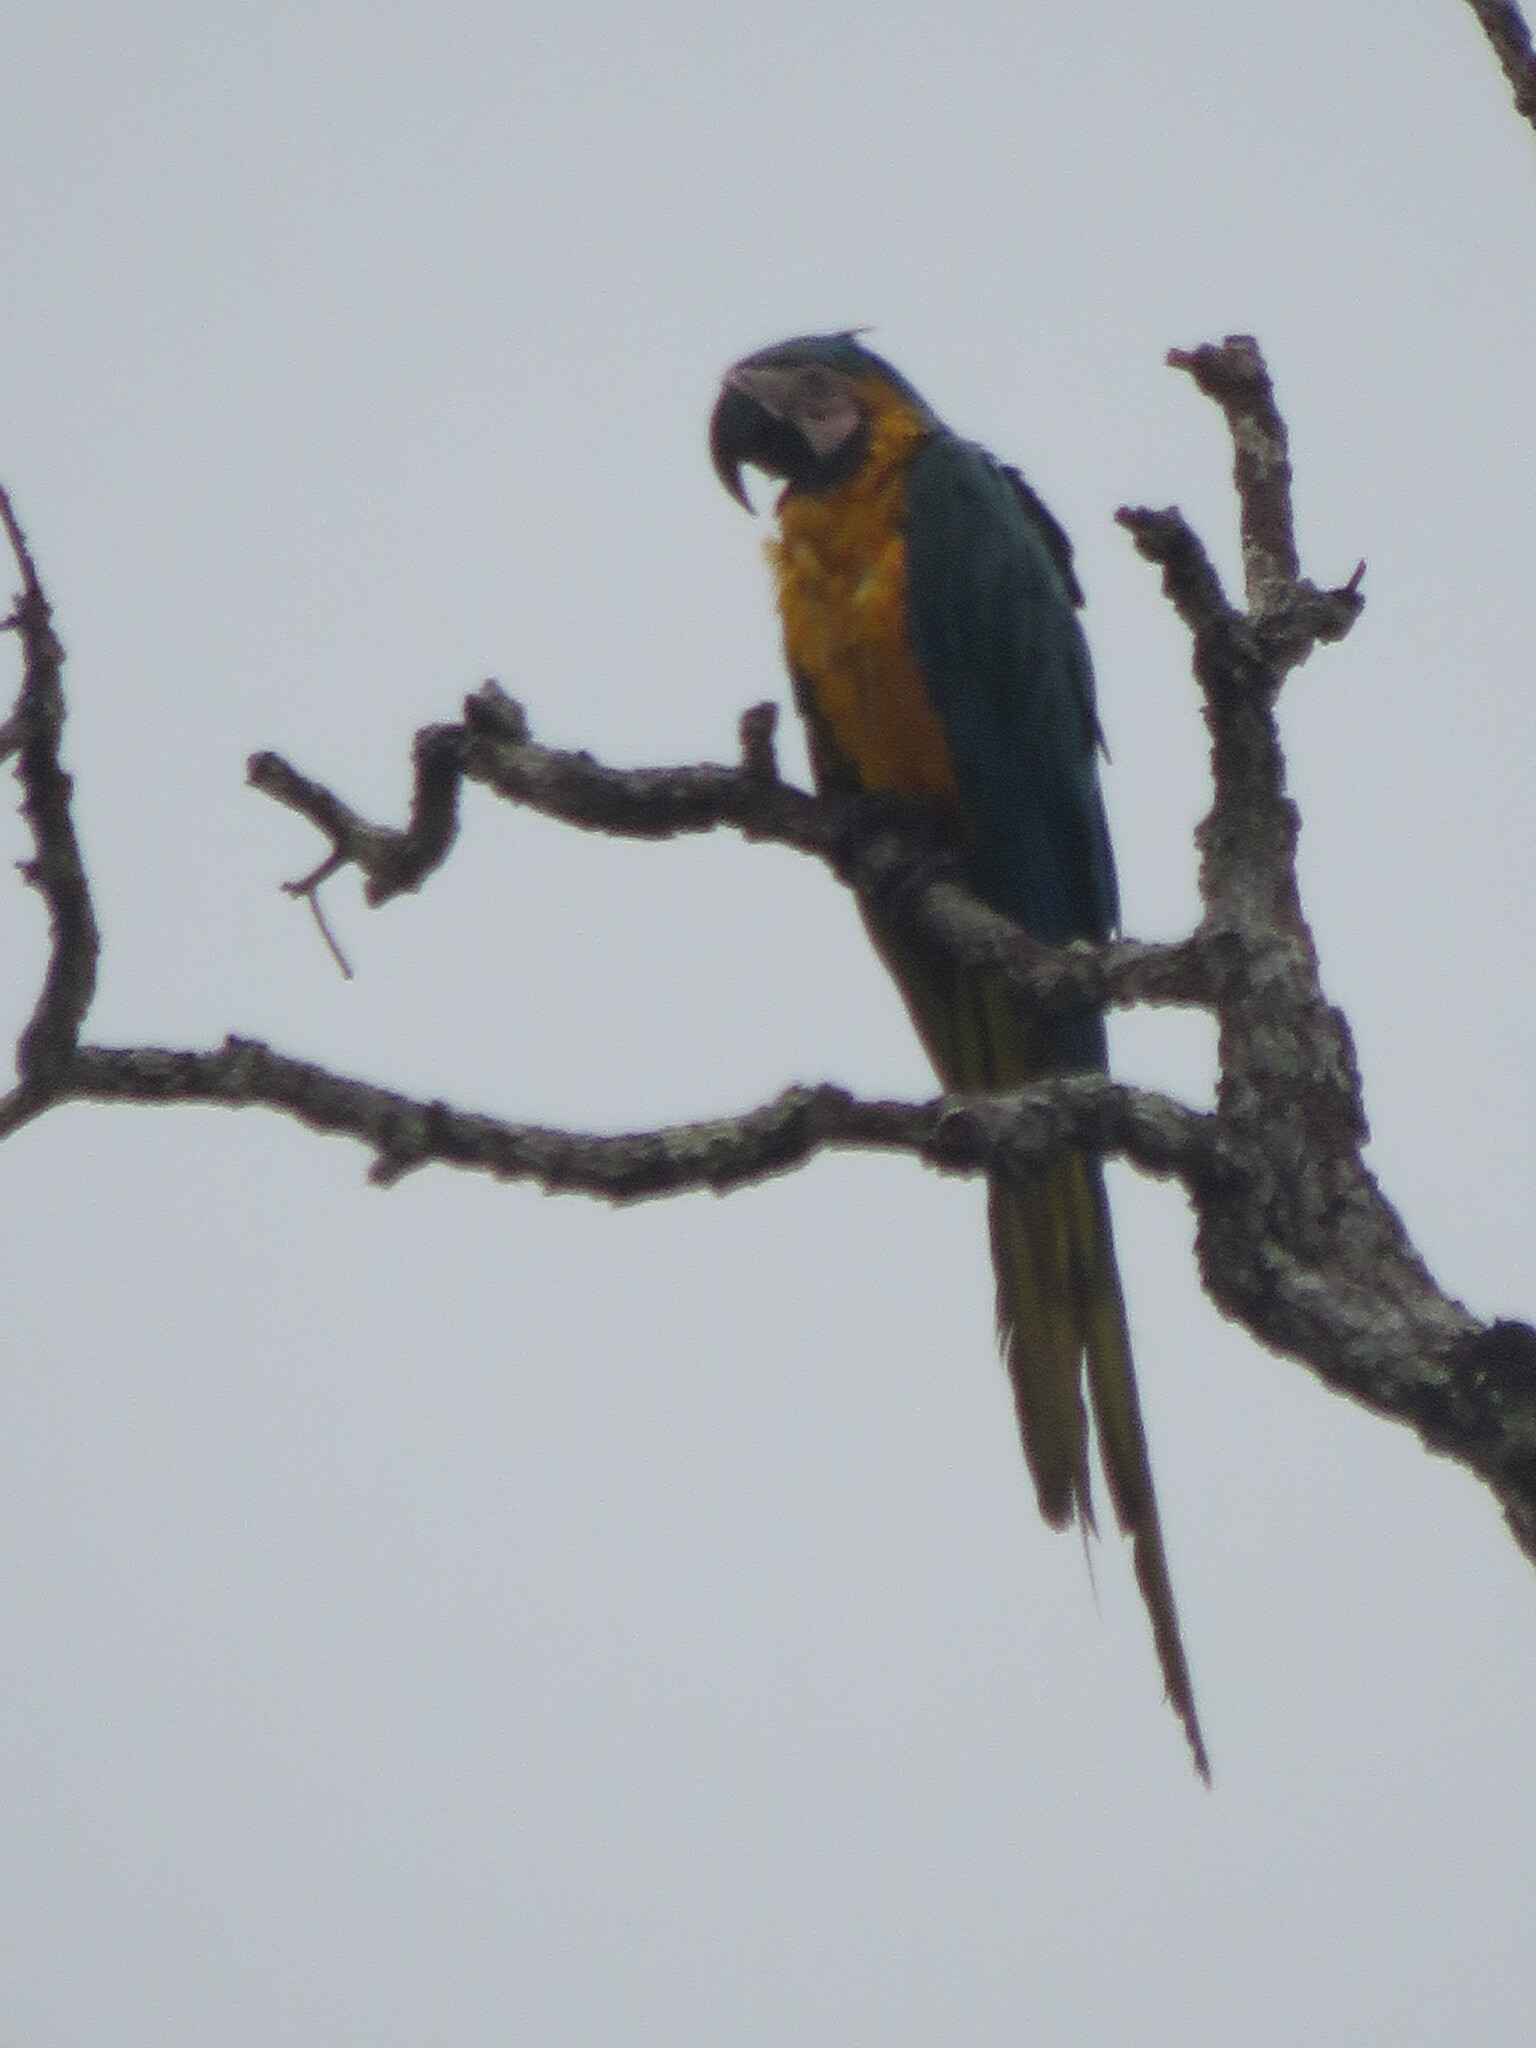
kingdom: Animalia
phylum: Chordata
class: Aves
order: Psittaciformes
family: Psittacidae
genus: Ara
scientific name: Ara ararauna
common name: Blue-and-yellow macaw
